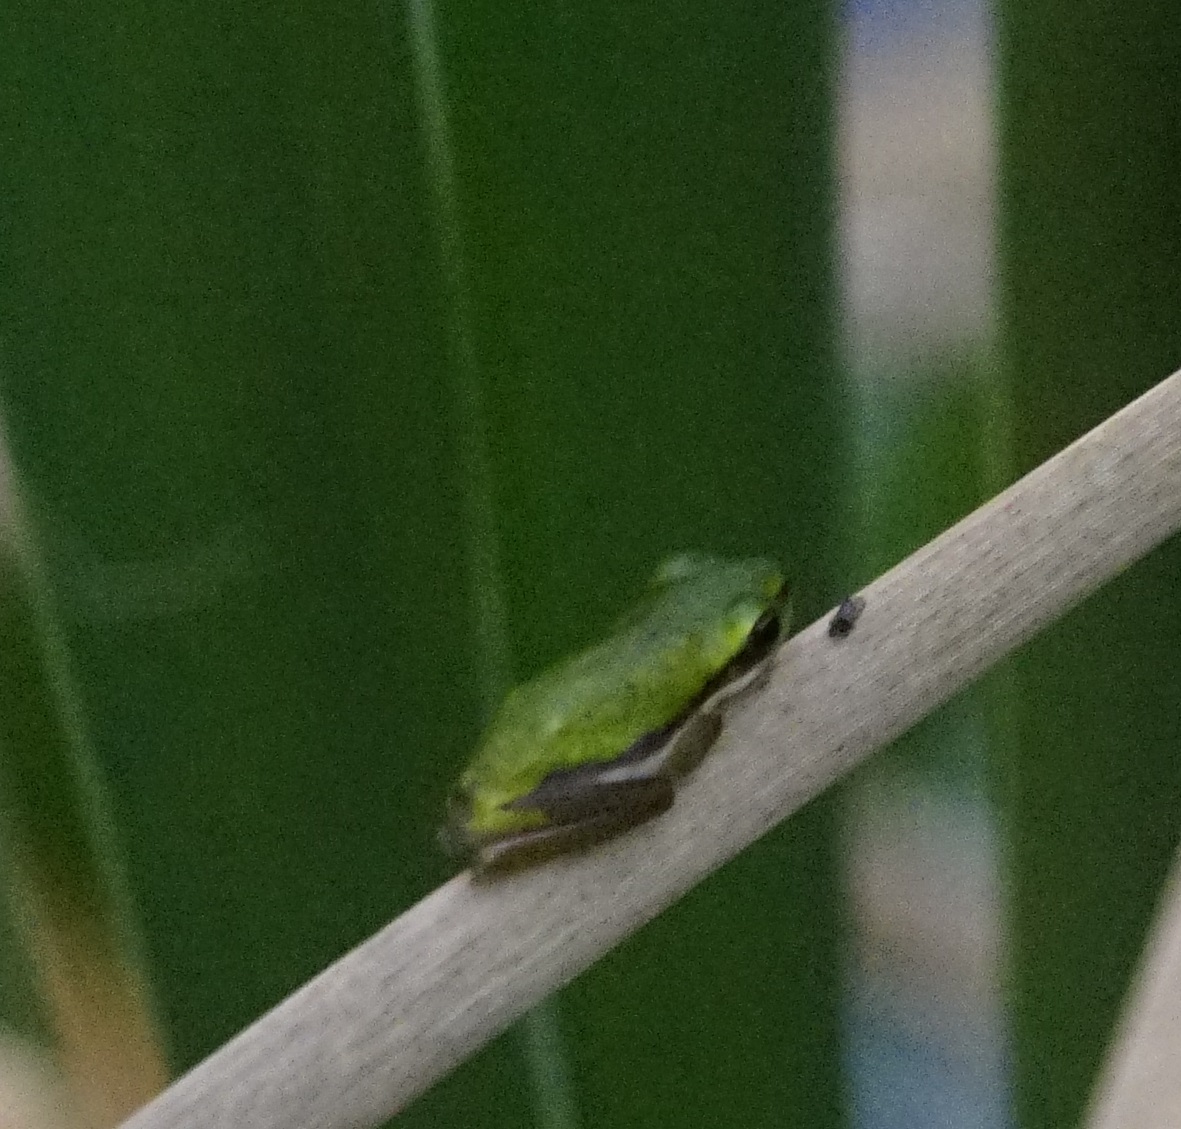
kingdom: Animalia
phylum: Chordata
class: Amphibia
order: Anura
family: Pelodryadidae
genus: Litoria
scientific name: Litoria fallax
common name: Eastern dwarf treefrog
